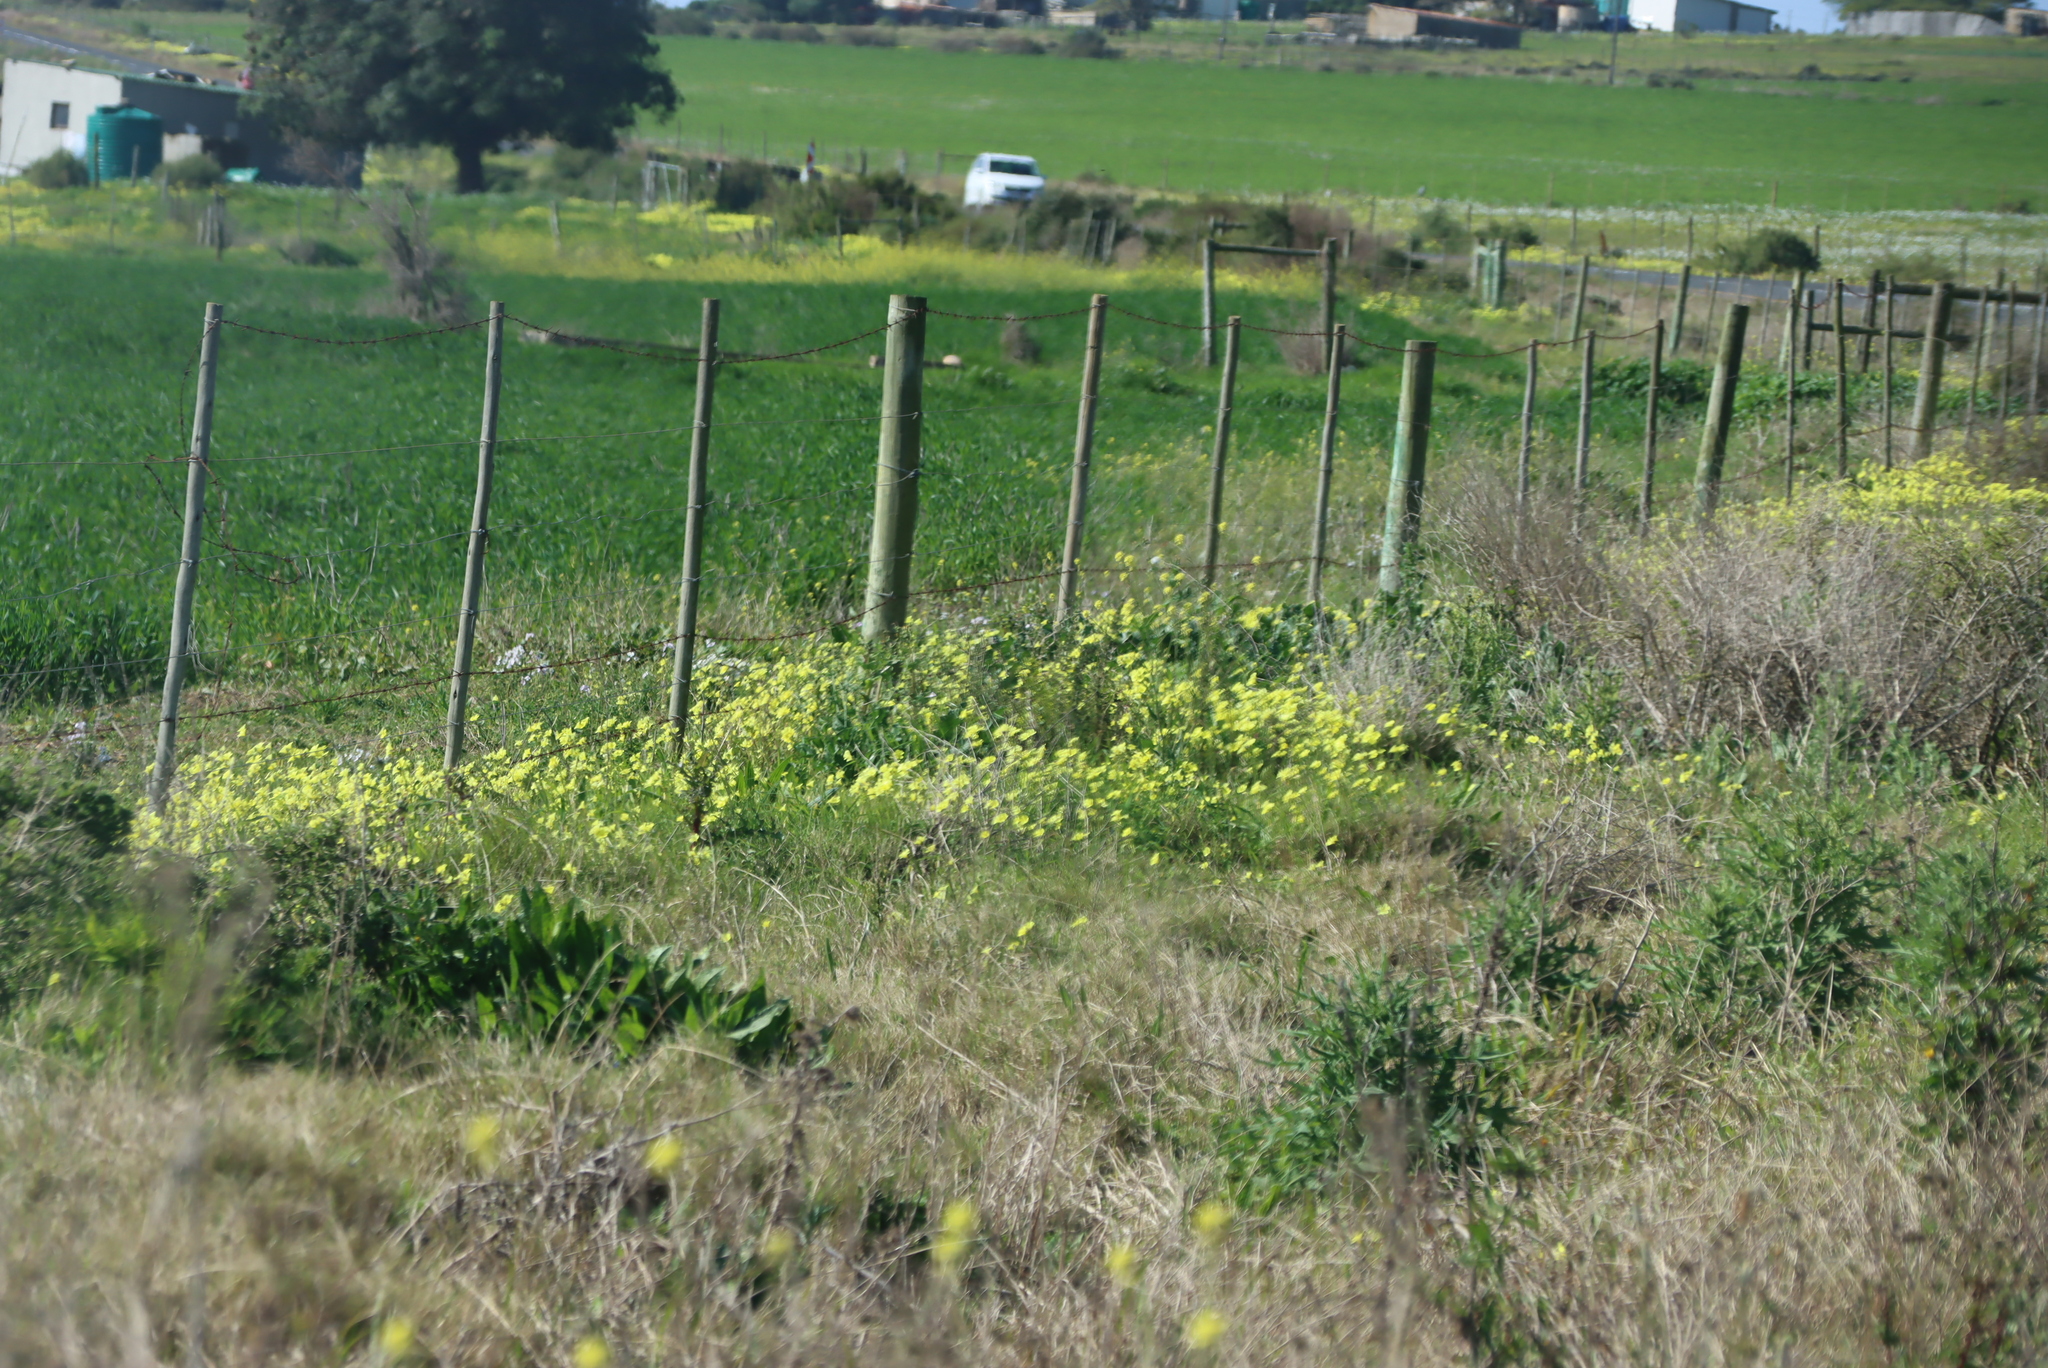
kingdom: Plantae
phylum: Tracheophyta
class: Magnoliopsida
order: Oxalidales
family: Oxalidaceae
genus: Oxalis
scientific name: Oxalis pes-caprae
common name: Bermuda-buttercup
